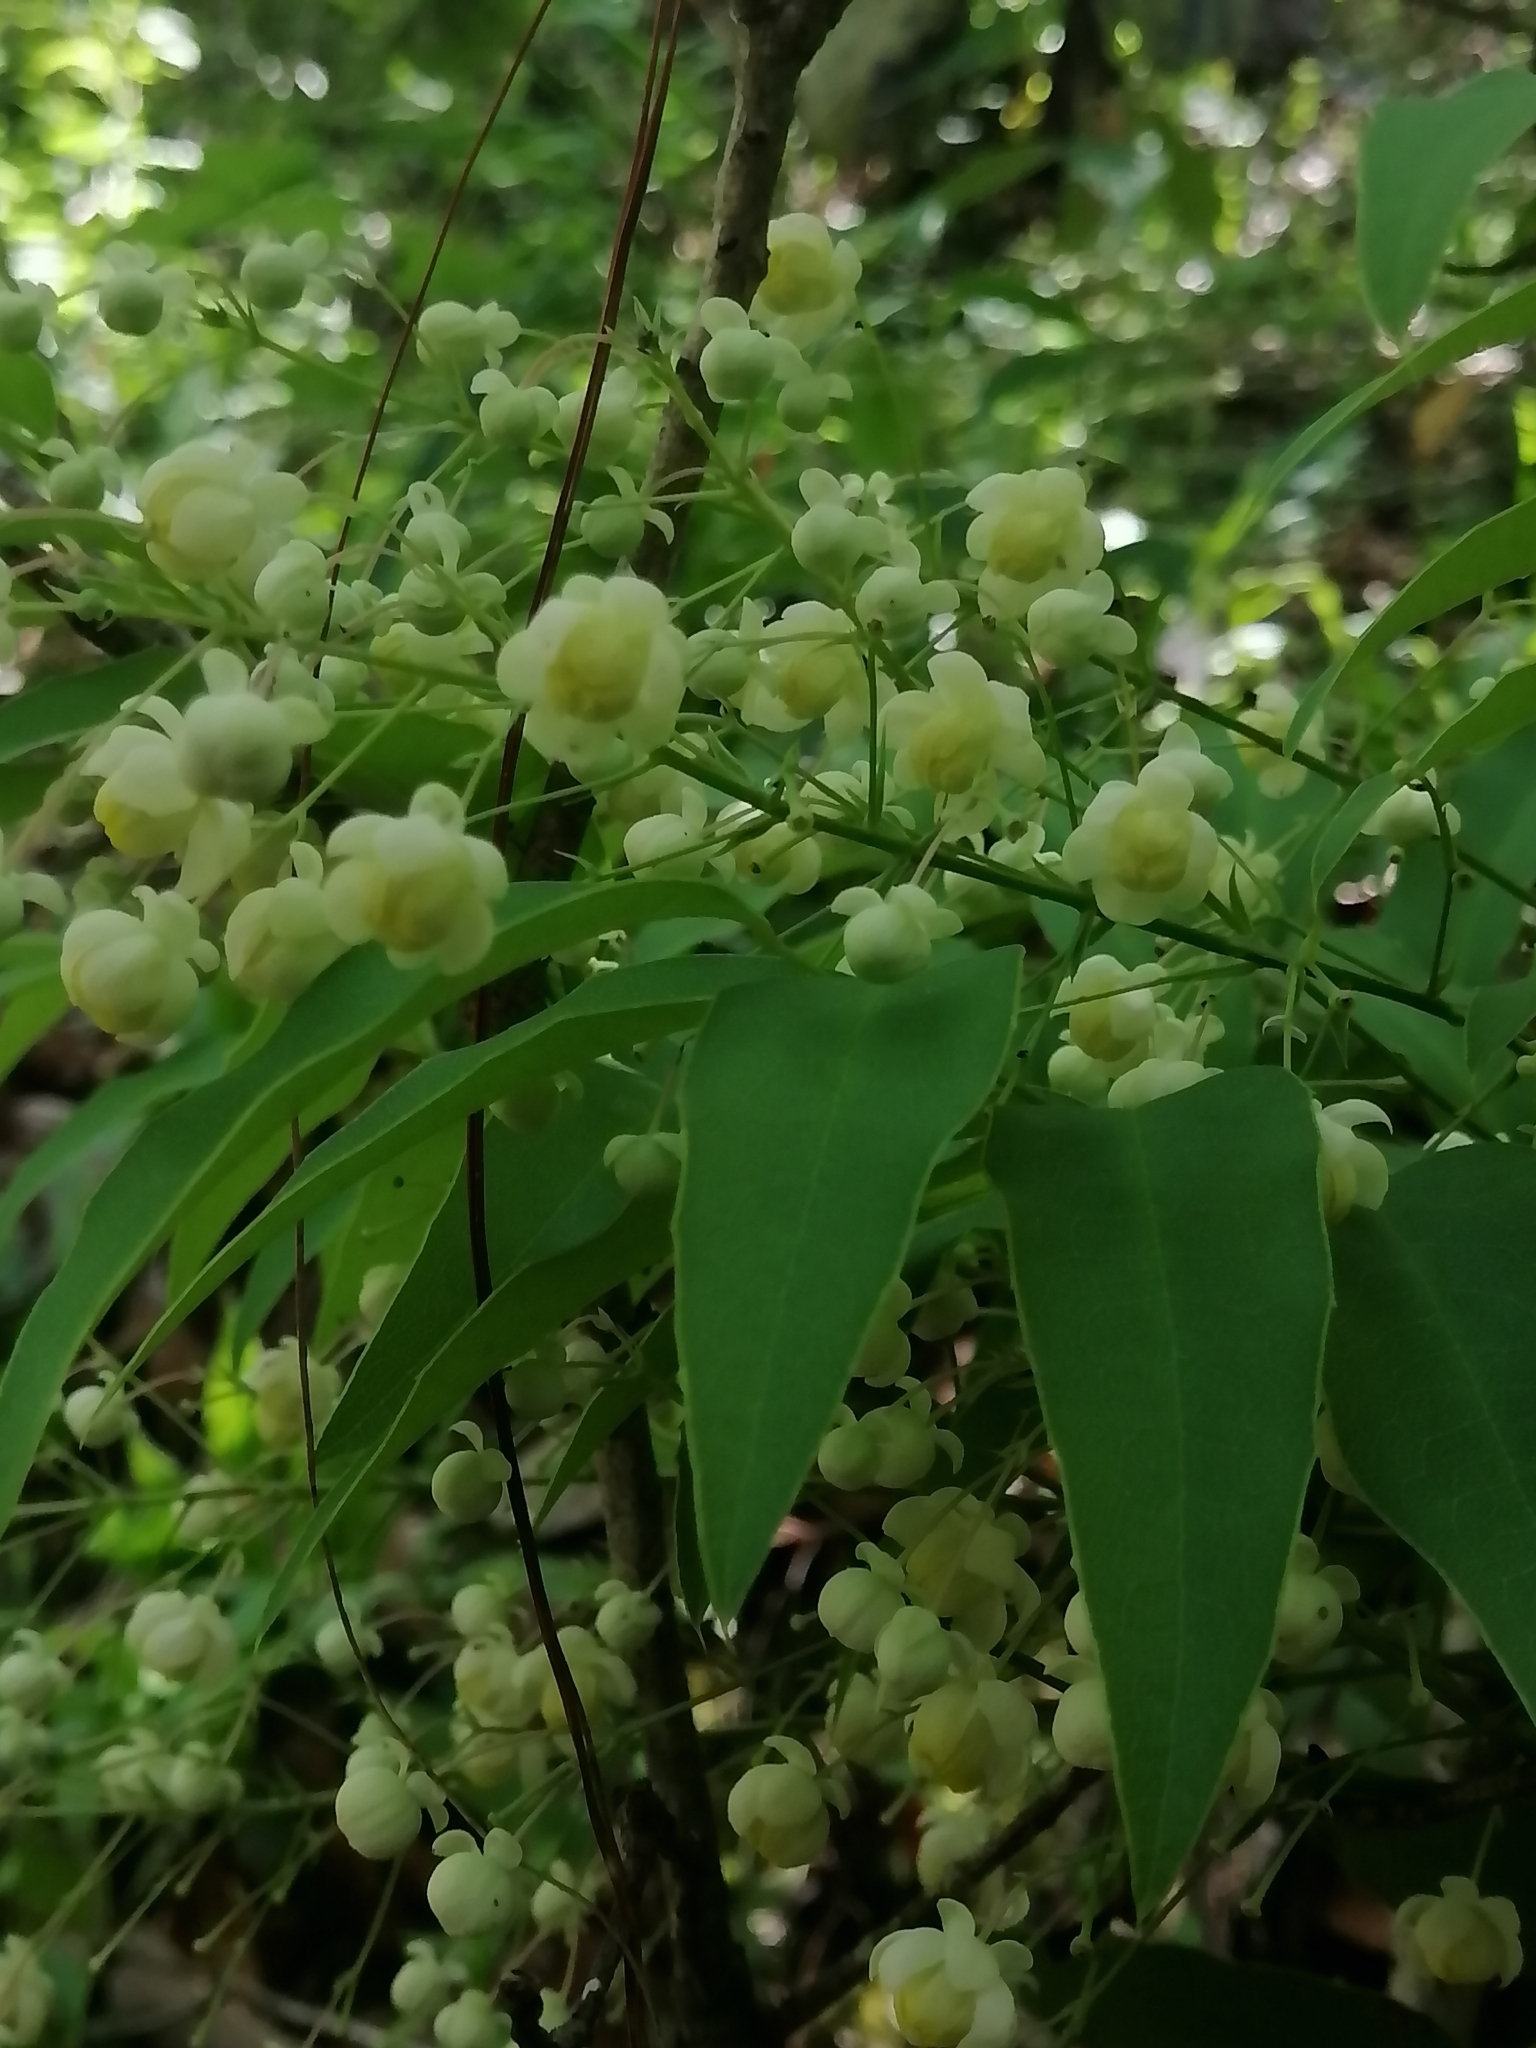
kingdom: Plantae
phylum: Tracheophyta
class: Magnoliopsida
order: Ranunculales
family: Berberidaceae
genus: Mahonia
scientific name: Mahonia hartwegii
